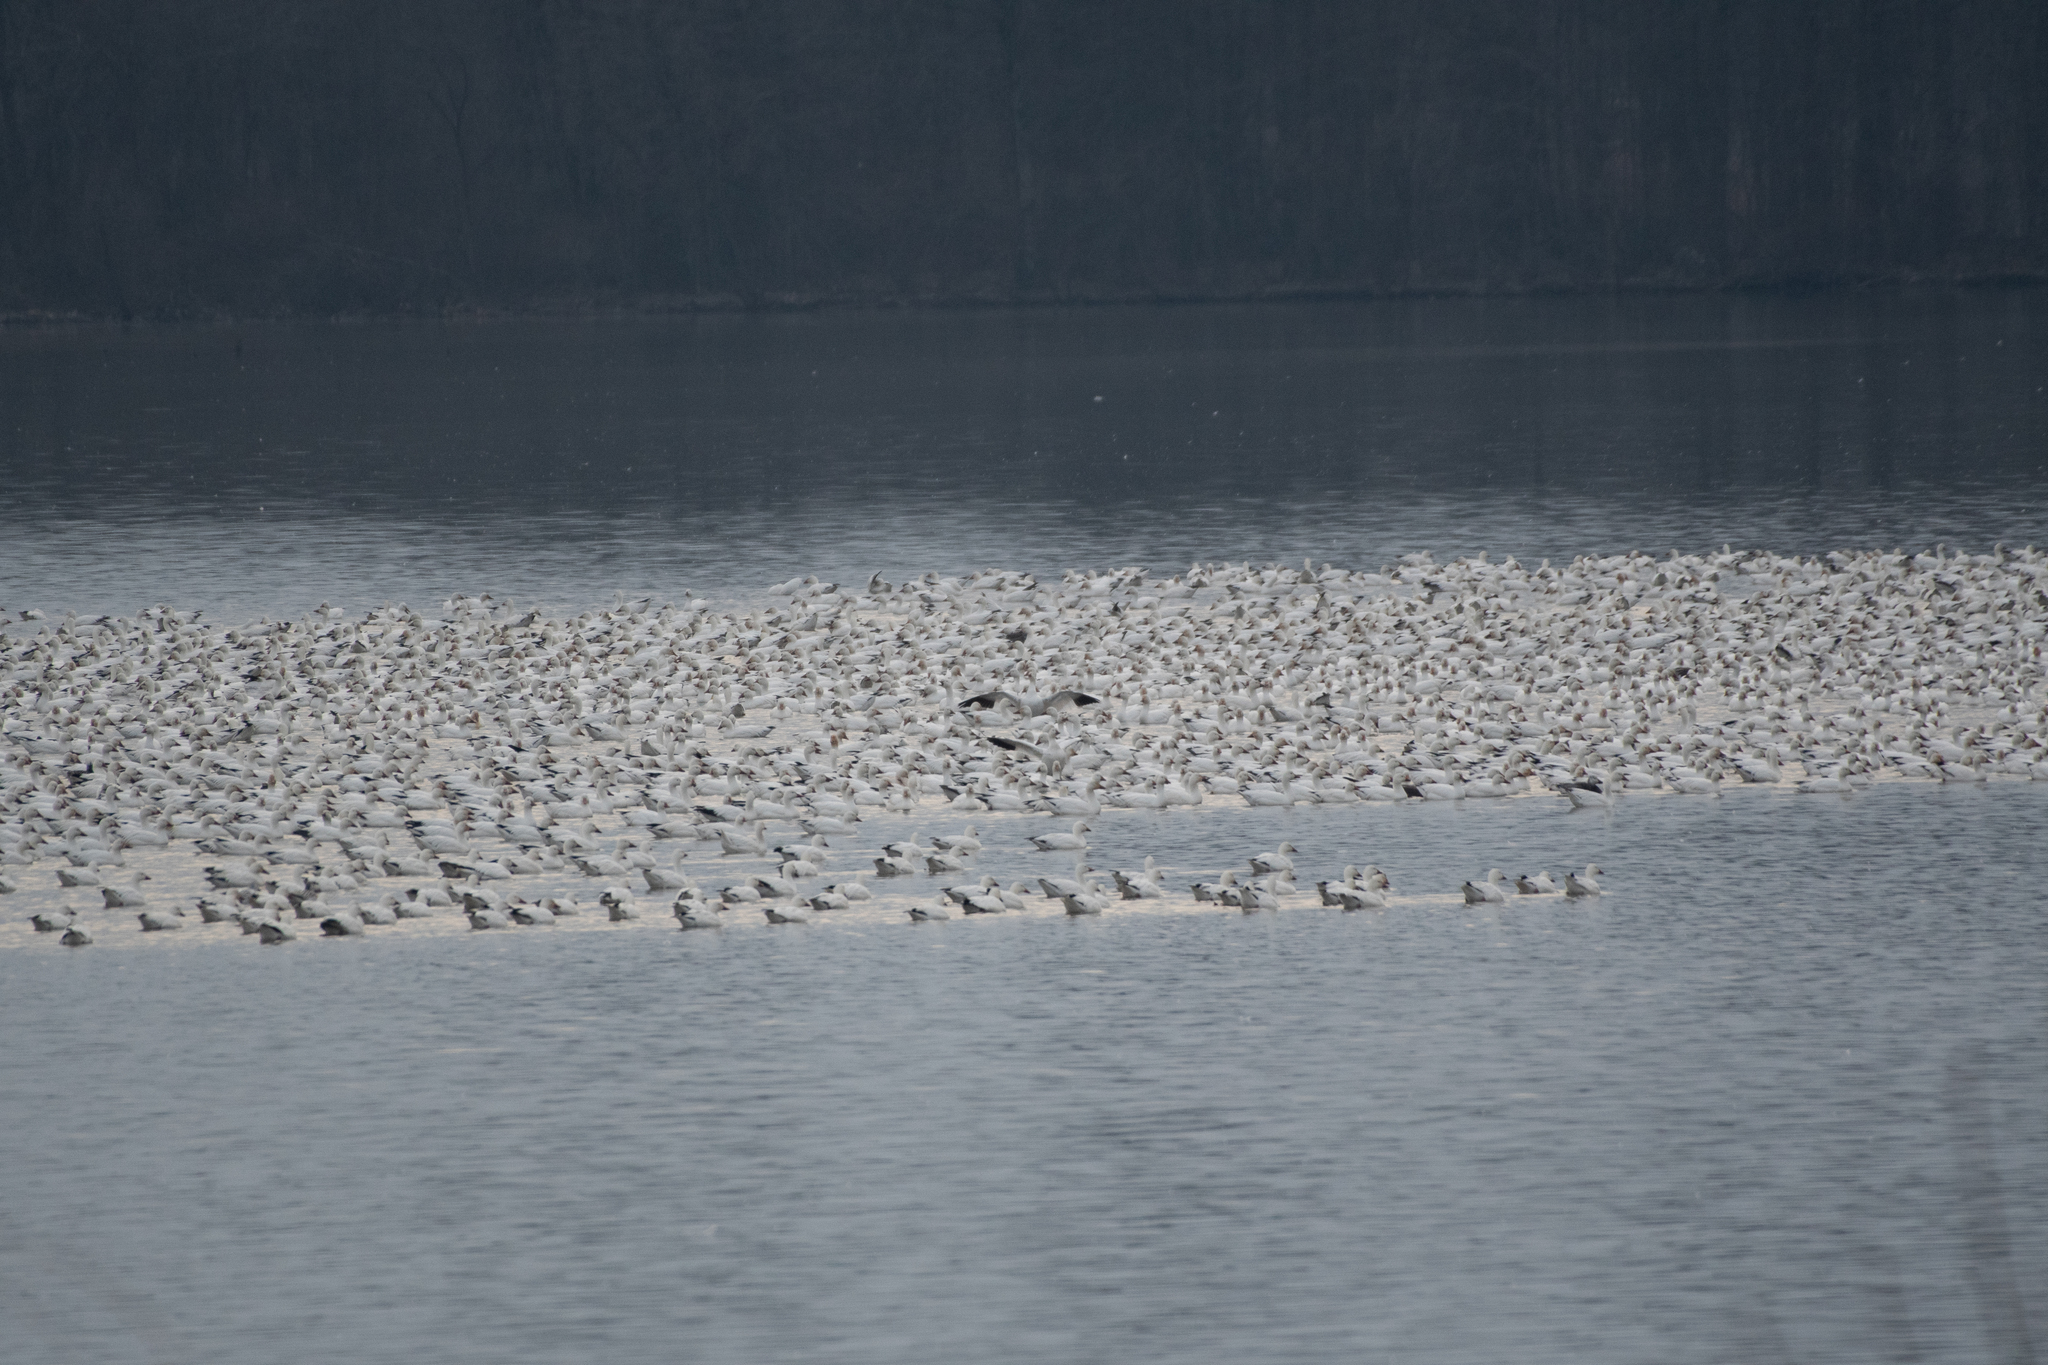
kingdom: Animalia
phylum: Chordata
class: Aves
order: Anseriformes
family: Anatidae
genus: Anser
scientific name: Anser caerulescens
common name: Snow goose
